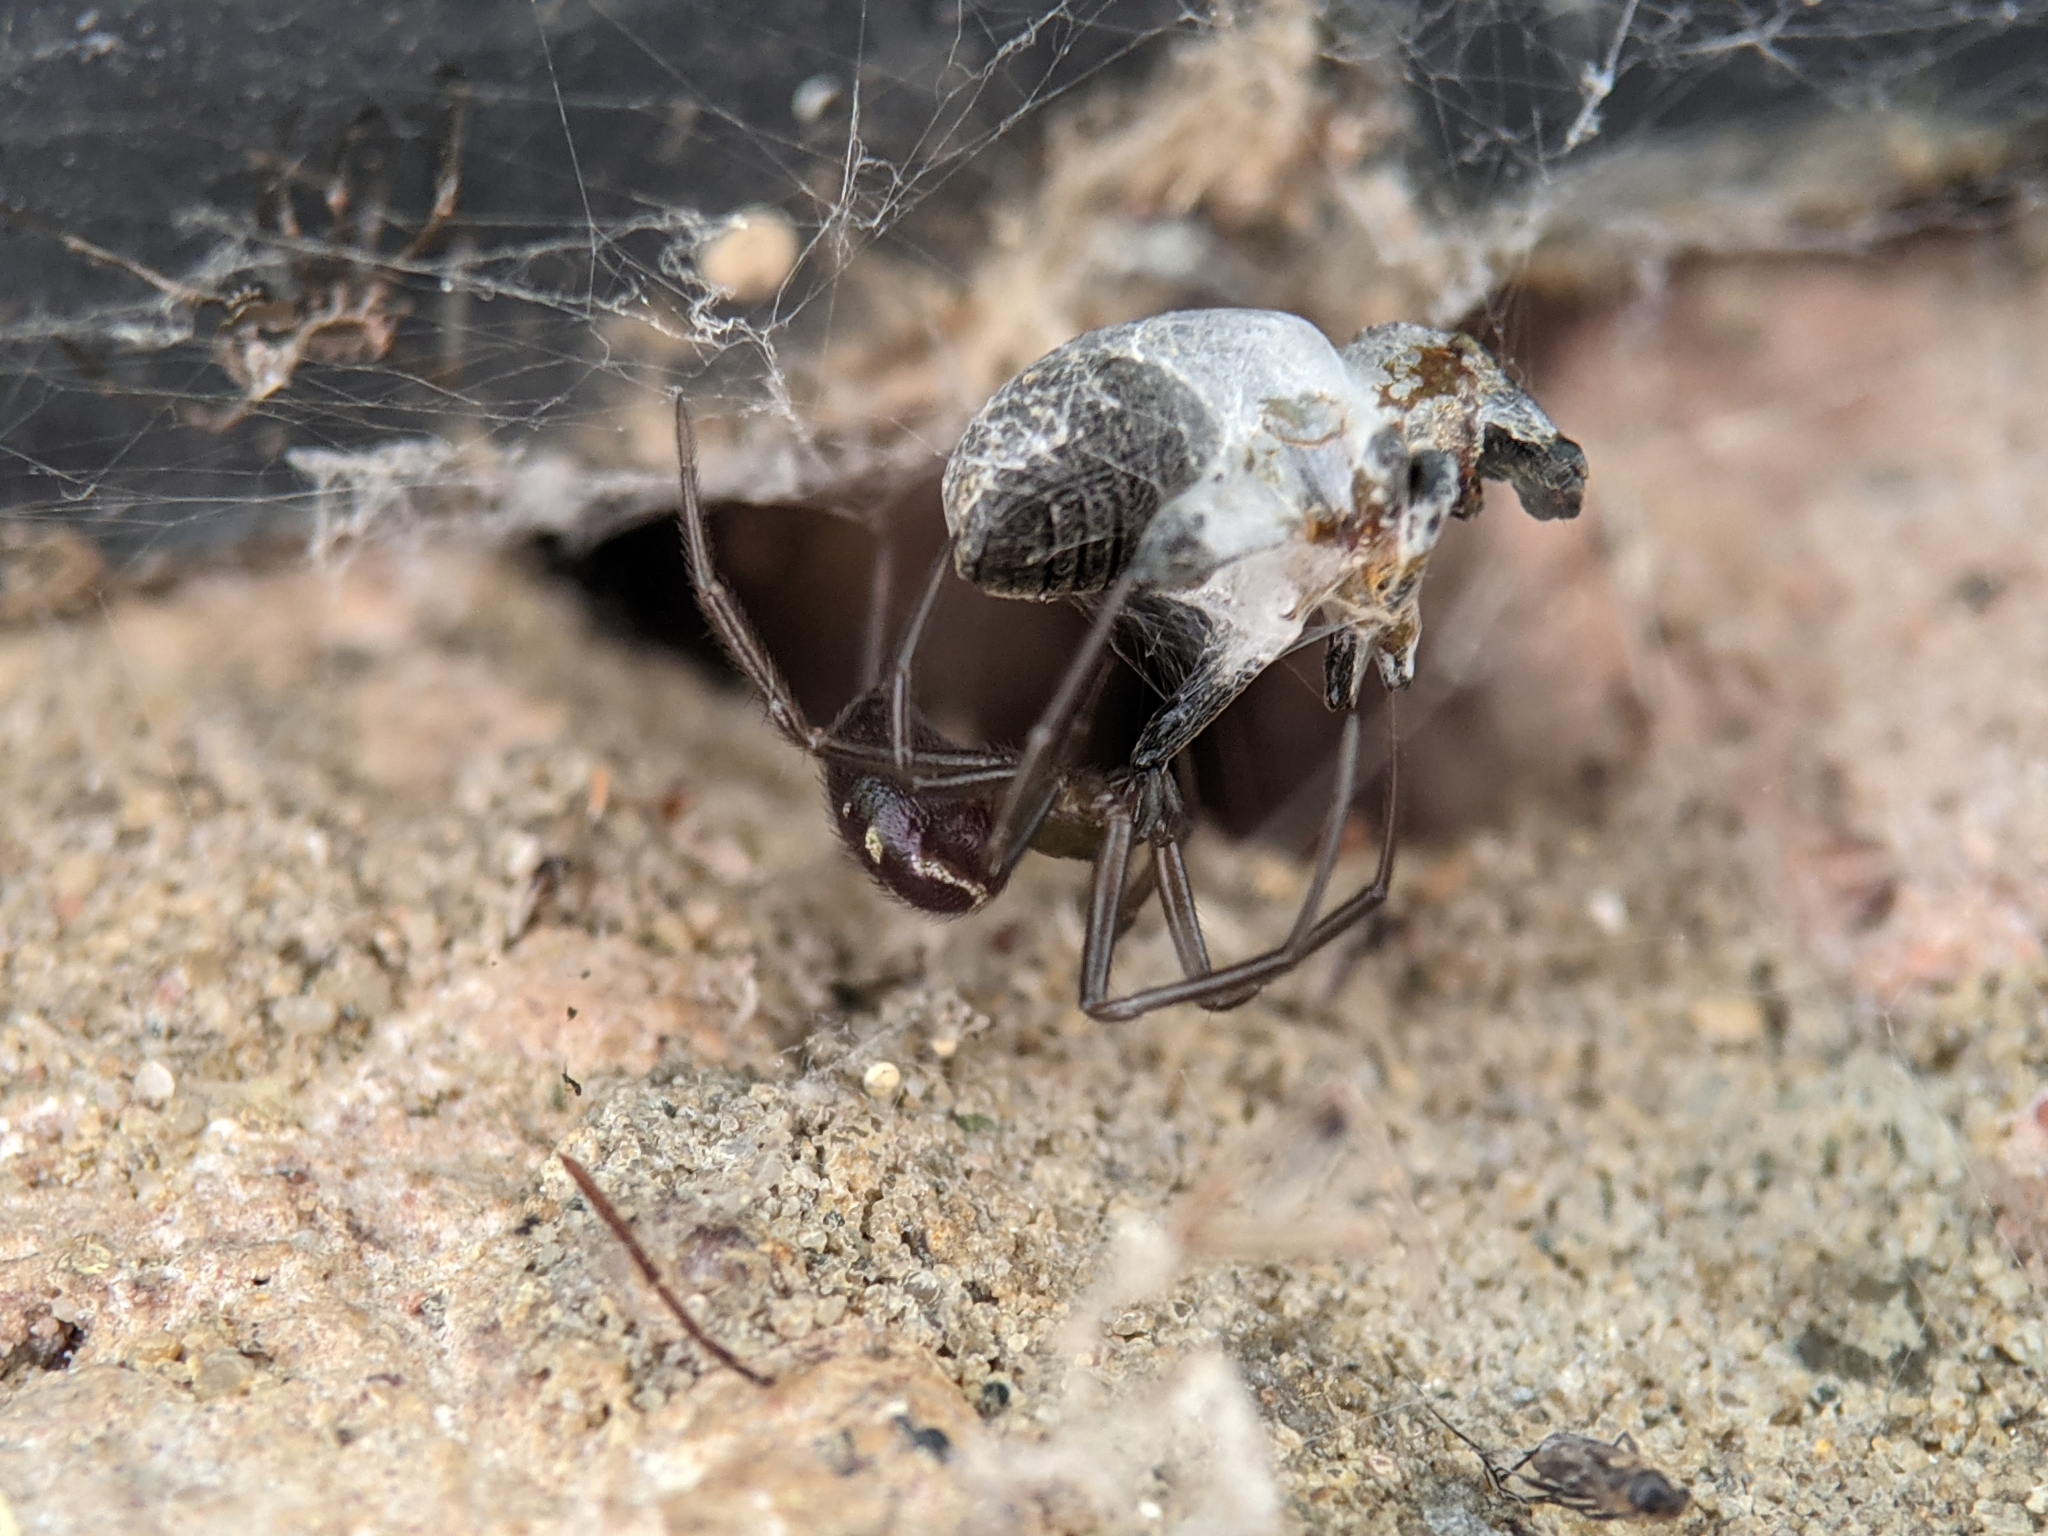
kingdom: Animalia
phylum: Arthropoda
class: Arachnida
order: Araneae
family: Theridiidae
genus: Steatoda
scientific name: Steatoda grossa
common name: False black widow
